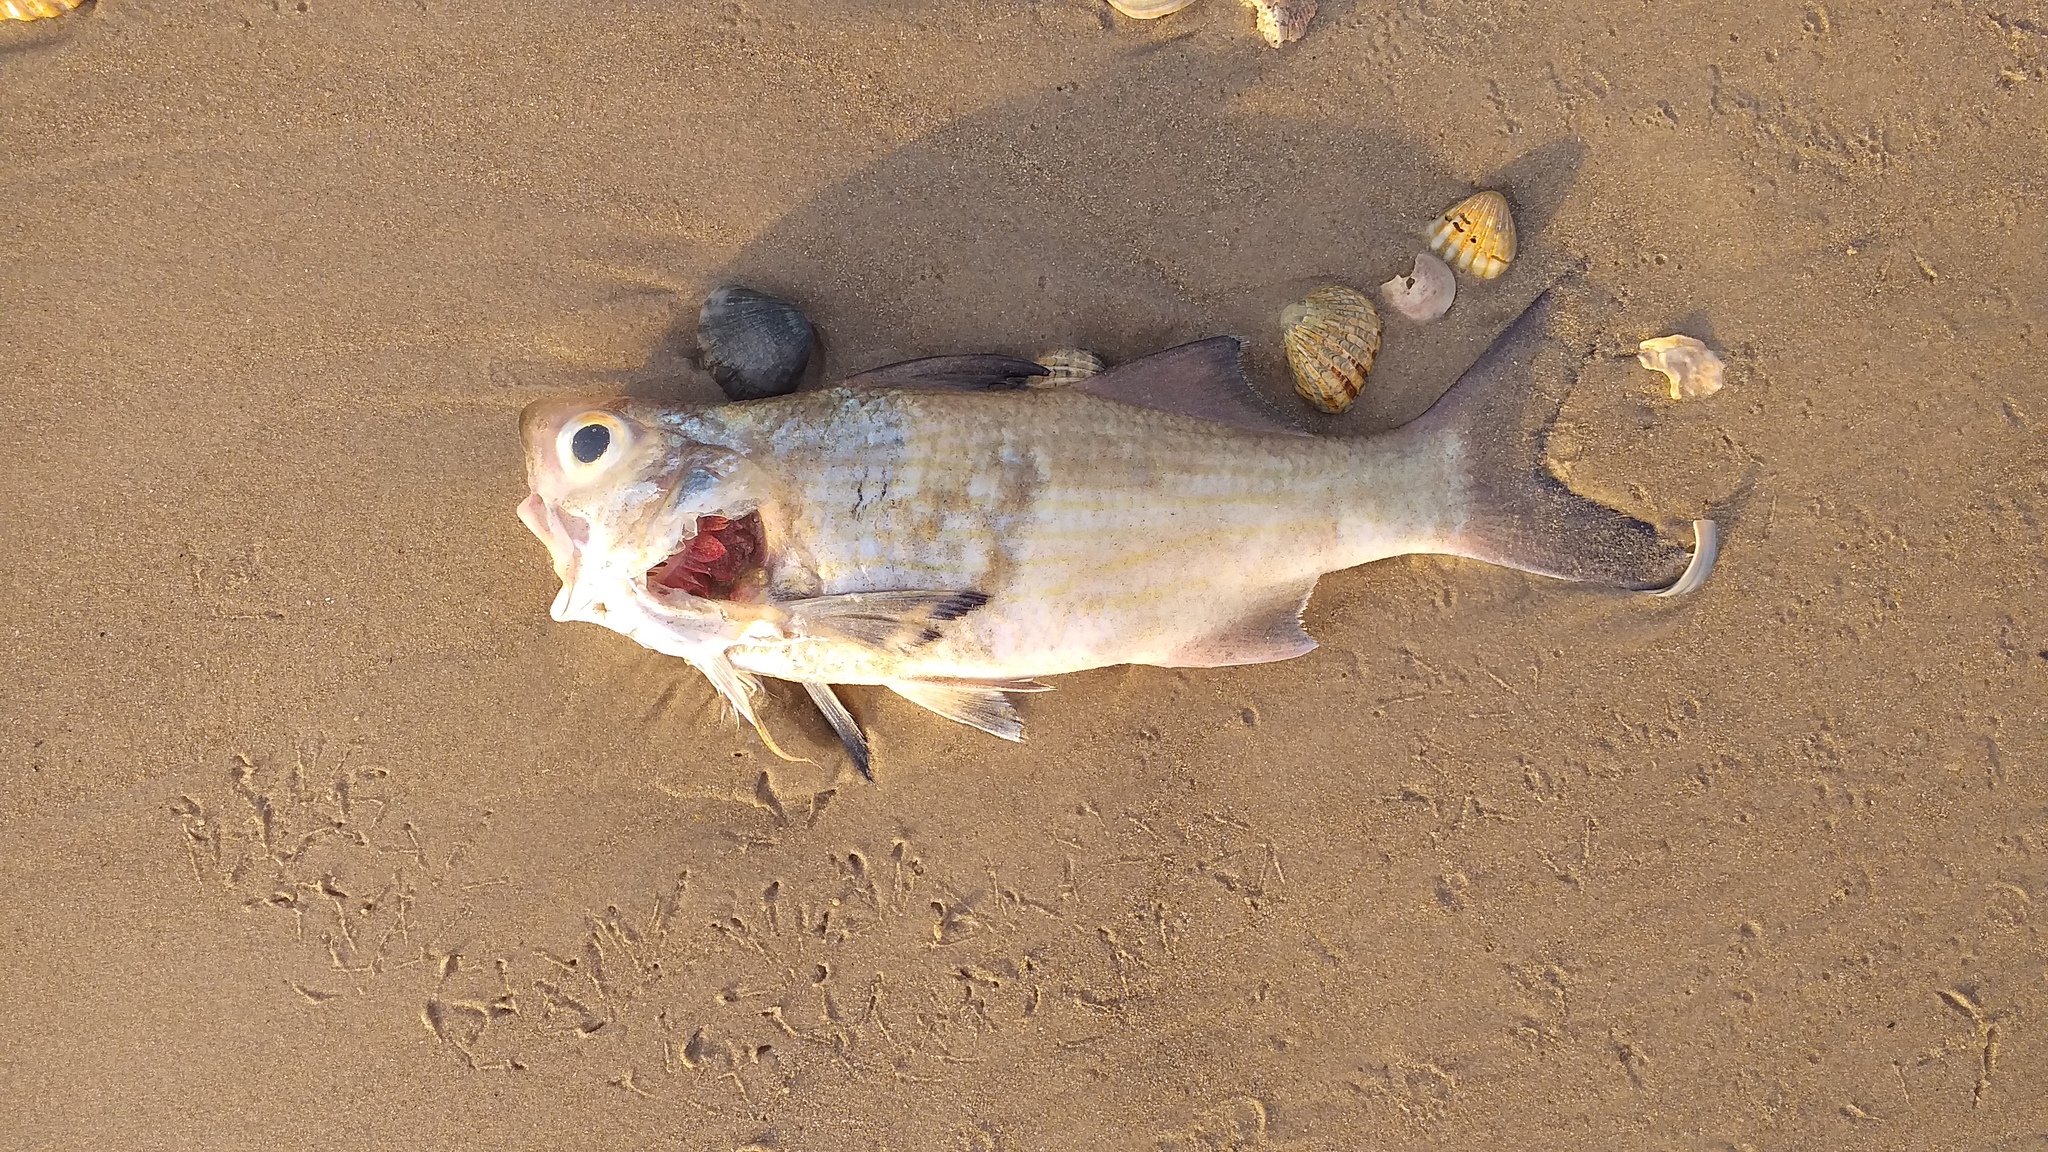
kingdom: Animalia
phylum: Chordata
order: Perciformes
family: Polynemidae
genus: Galeoides
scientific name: Galeoides decadactylus
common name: Lesser african threadfin
